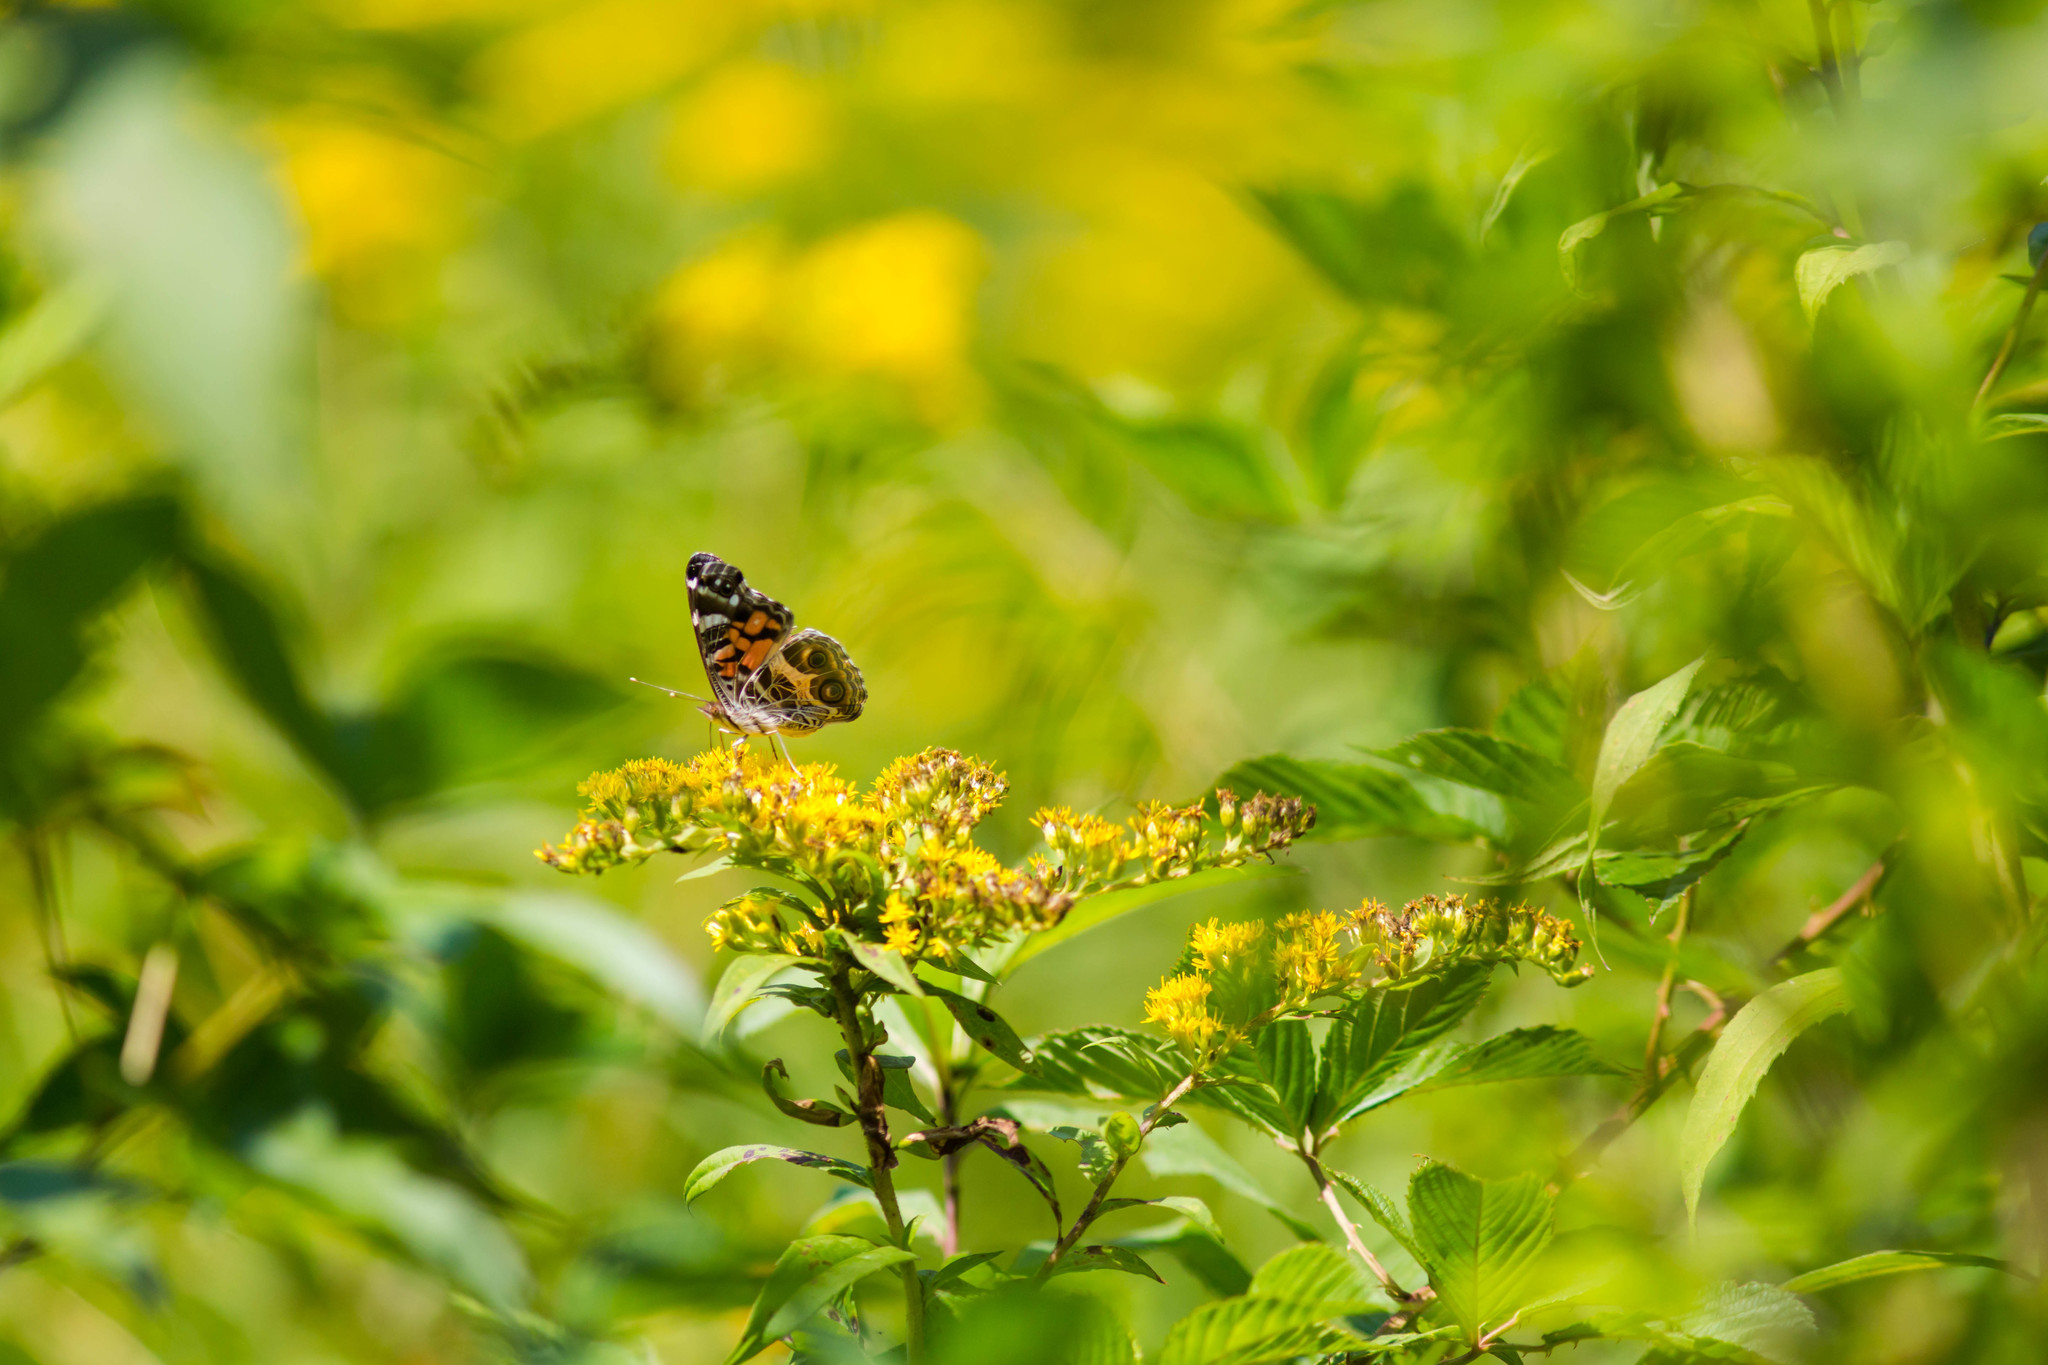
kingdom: Animalia
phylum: Arthropoda
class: Insecta
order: Lepidoptera
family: Nymphalidae
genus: Vanessa
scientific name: Vanessa virginiensis
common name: American lady
